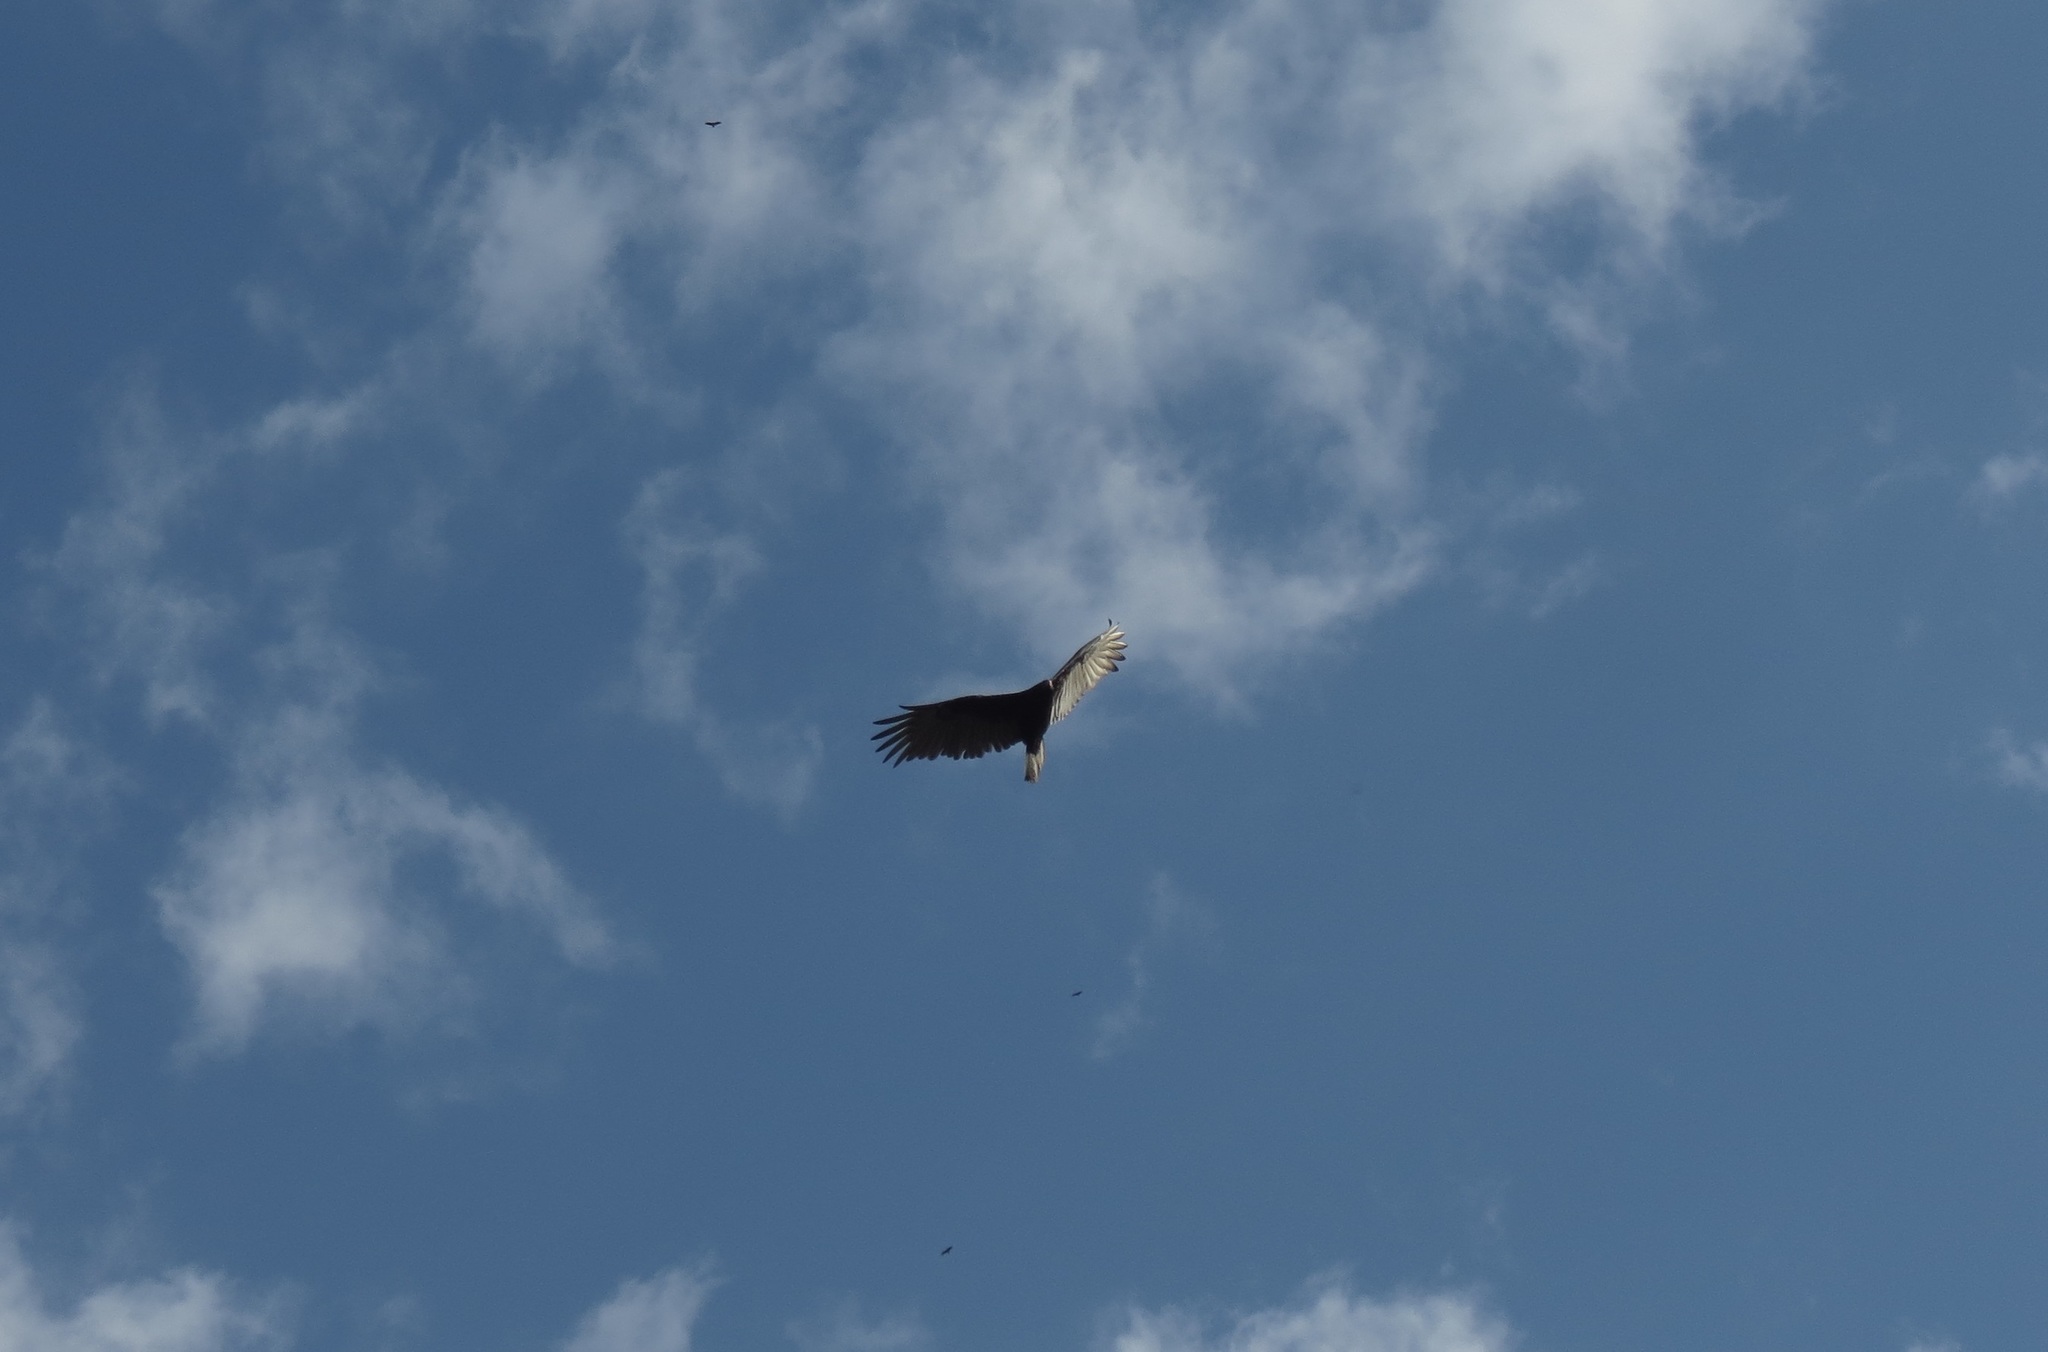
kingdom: Animalia
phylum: Chordata
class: Aves
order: Accipitriformes
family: Cathartidae
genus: Cathartes
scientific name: Cathartes aura
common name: Turkey vulture
